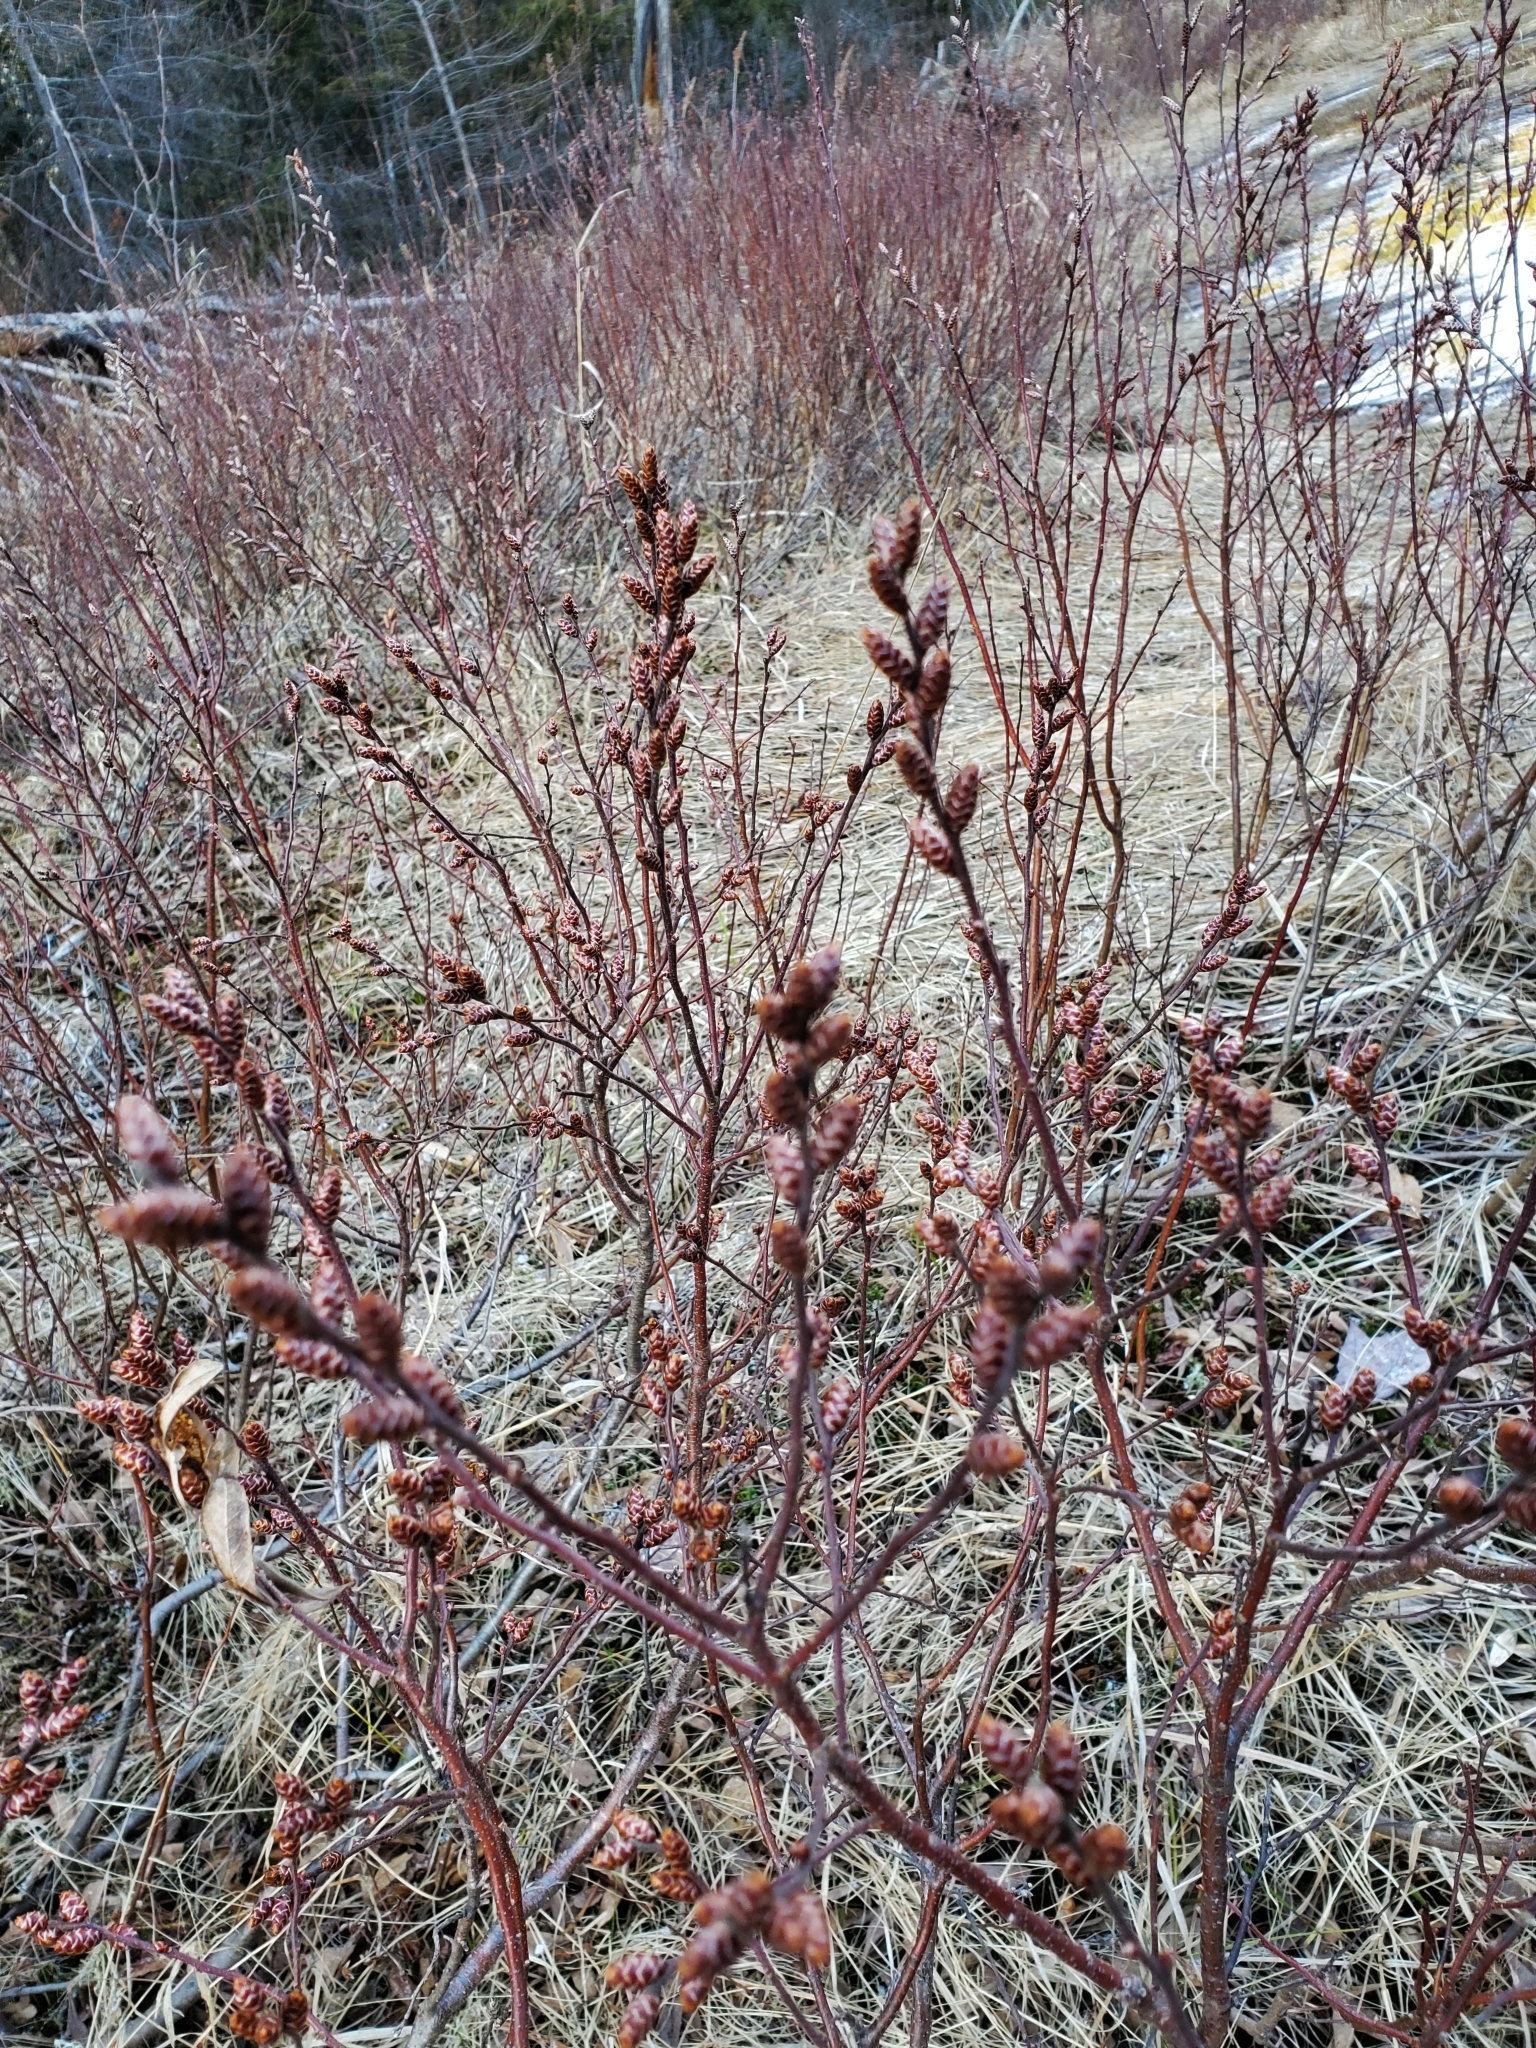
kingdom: Plantae
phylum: Tracheophyta
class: Magnoliopsida
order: Fagales
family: Myricaceae
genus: Myrica
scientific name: Myrica gale
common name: Sweet gale
